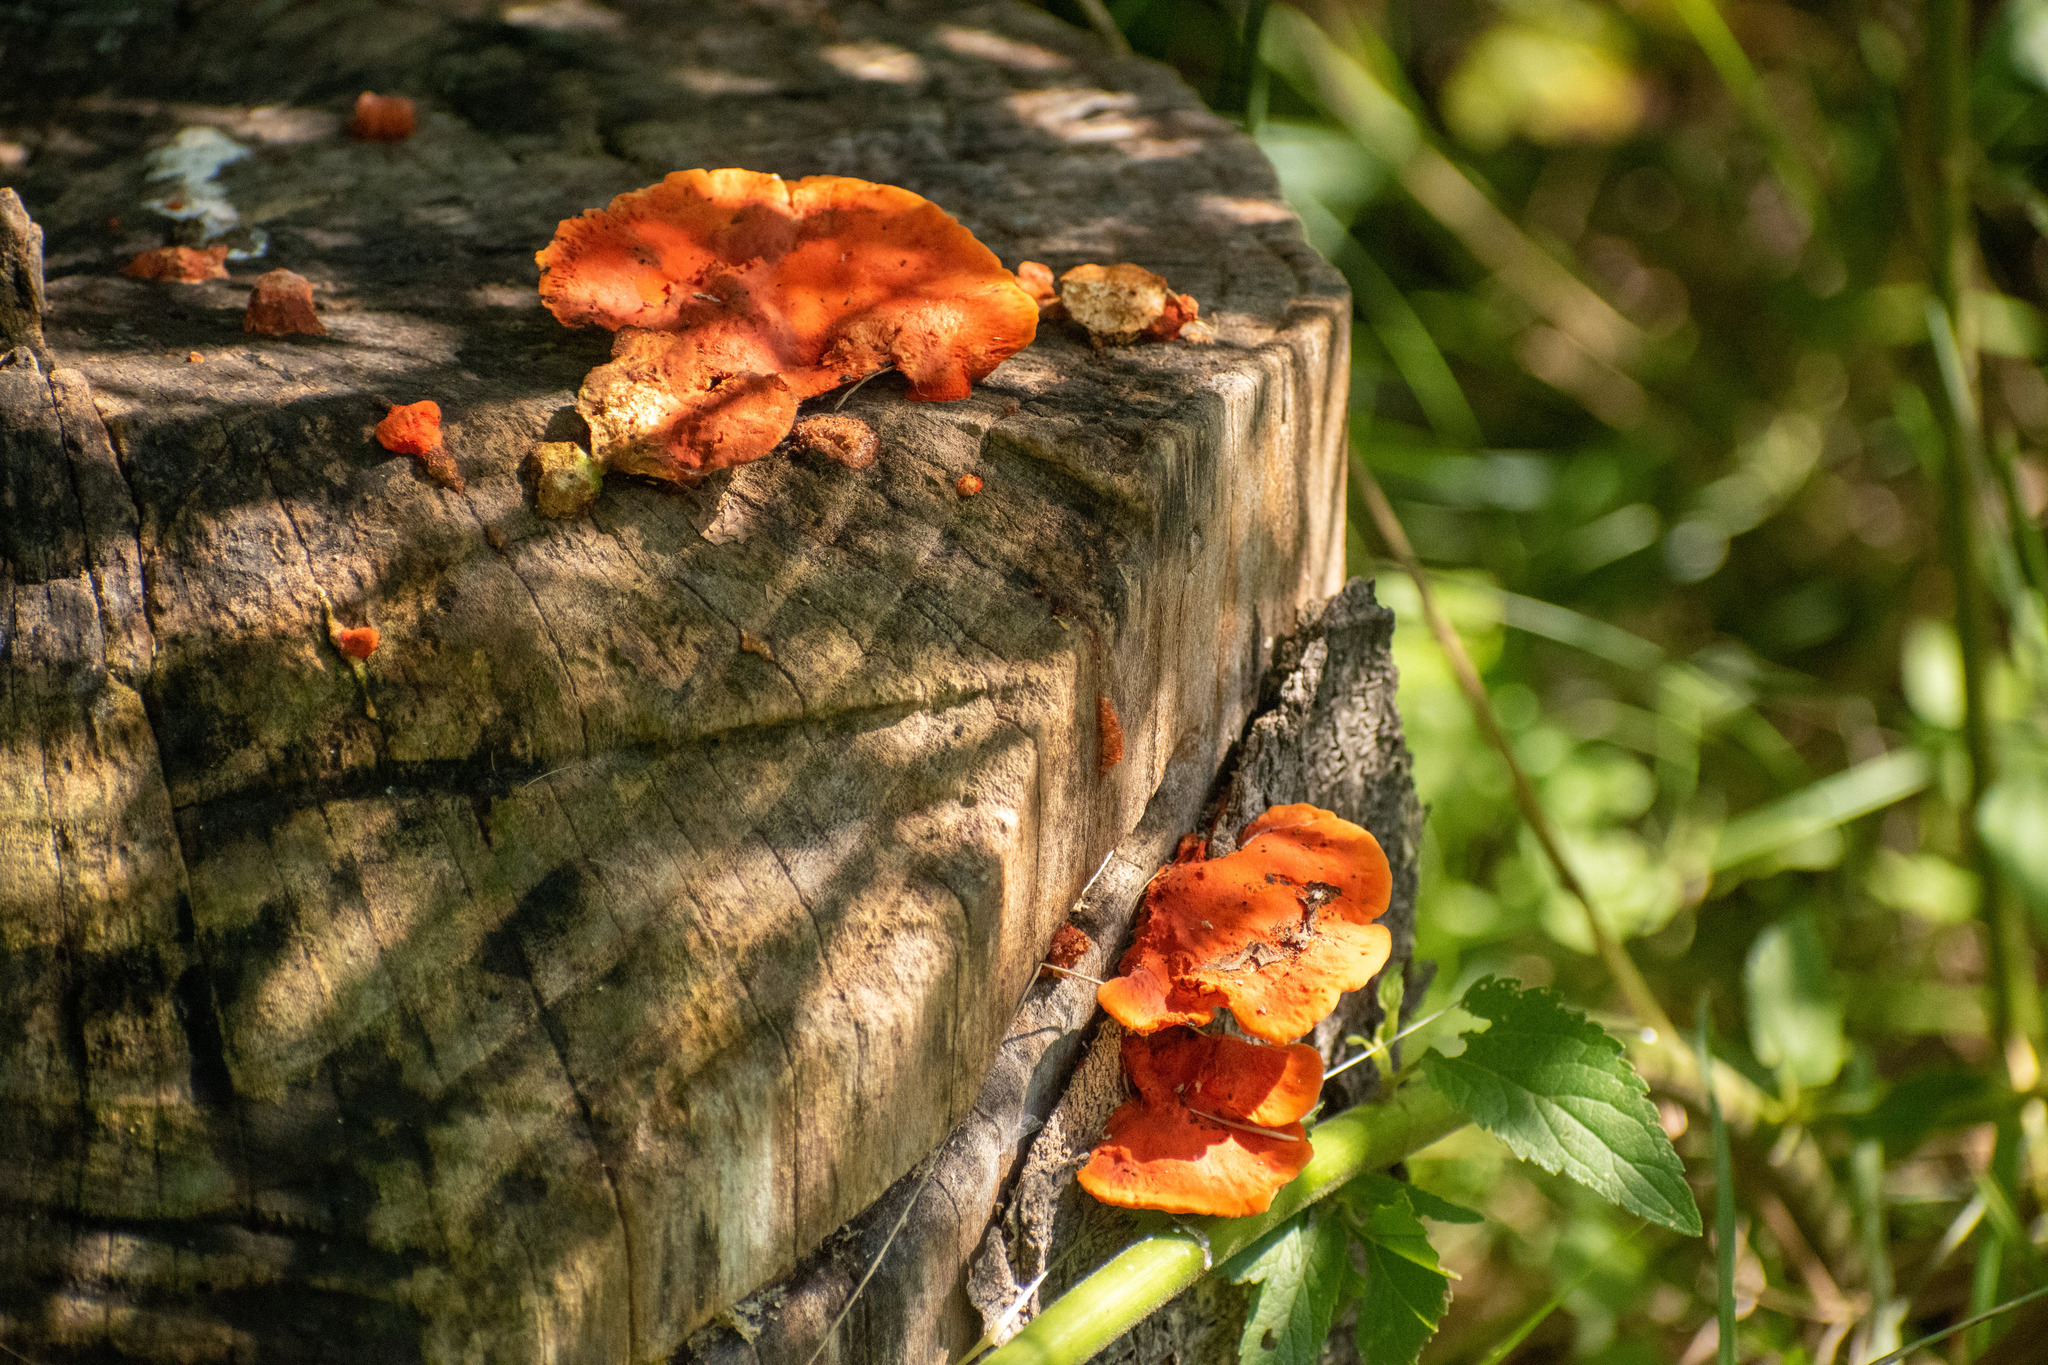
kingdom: Fungi
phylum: Basidiomycota
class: Agaricomycetes
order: Polyporales
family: Polyporaceae
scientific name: Polyporaceae
